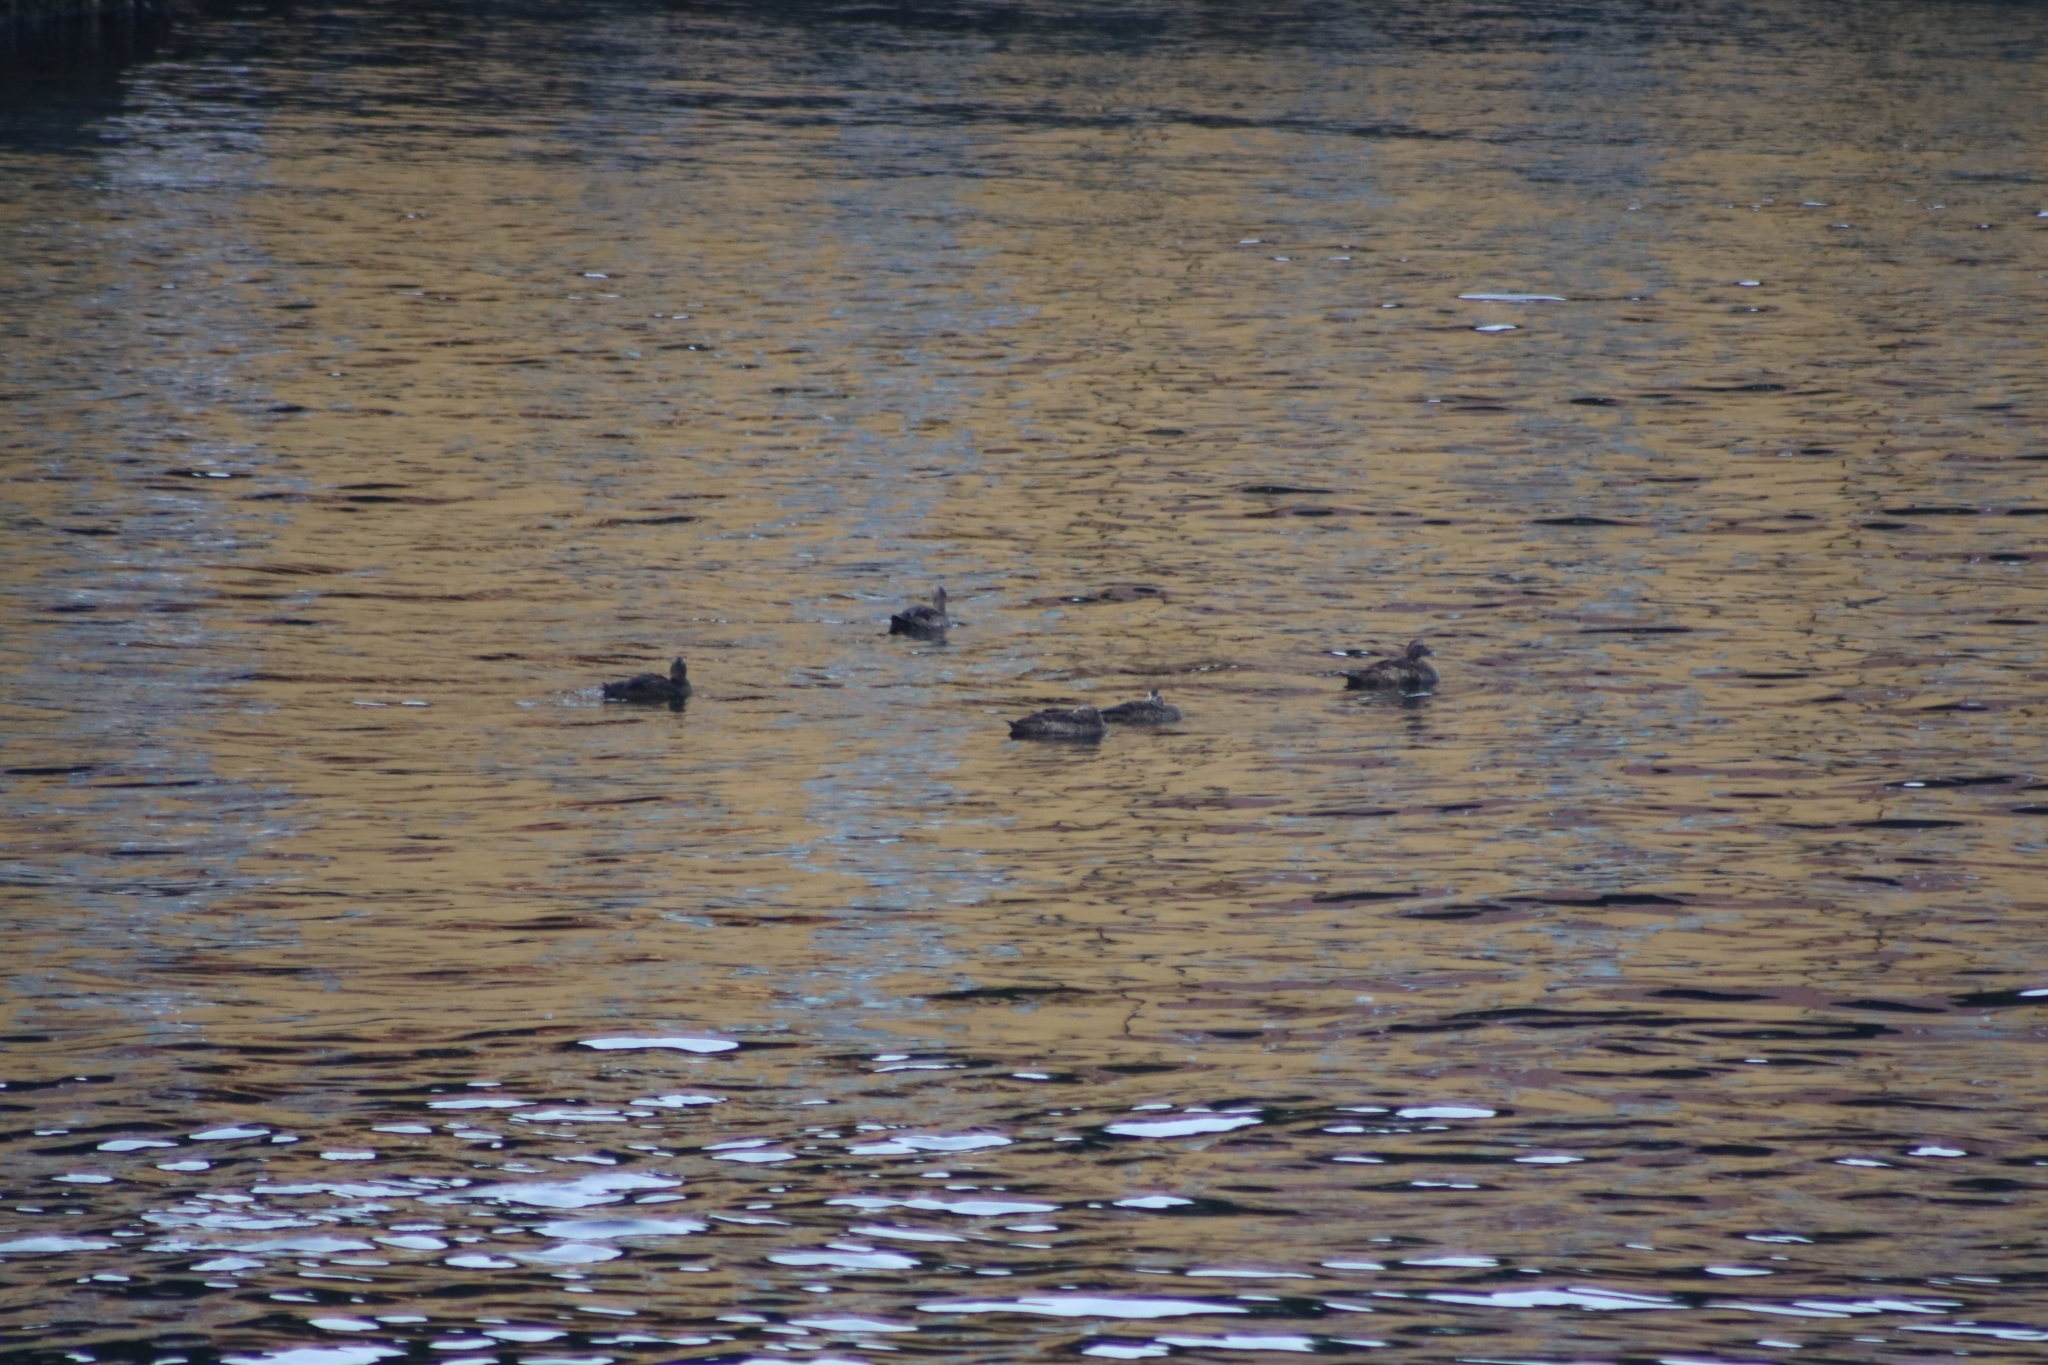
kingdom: Animalia
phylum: Chordata
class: Aves
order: Anseriformes
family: Anatidae
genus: Somateria
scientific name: Somateria mollissima
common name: Common eider
